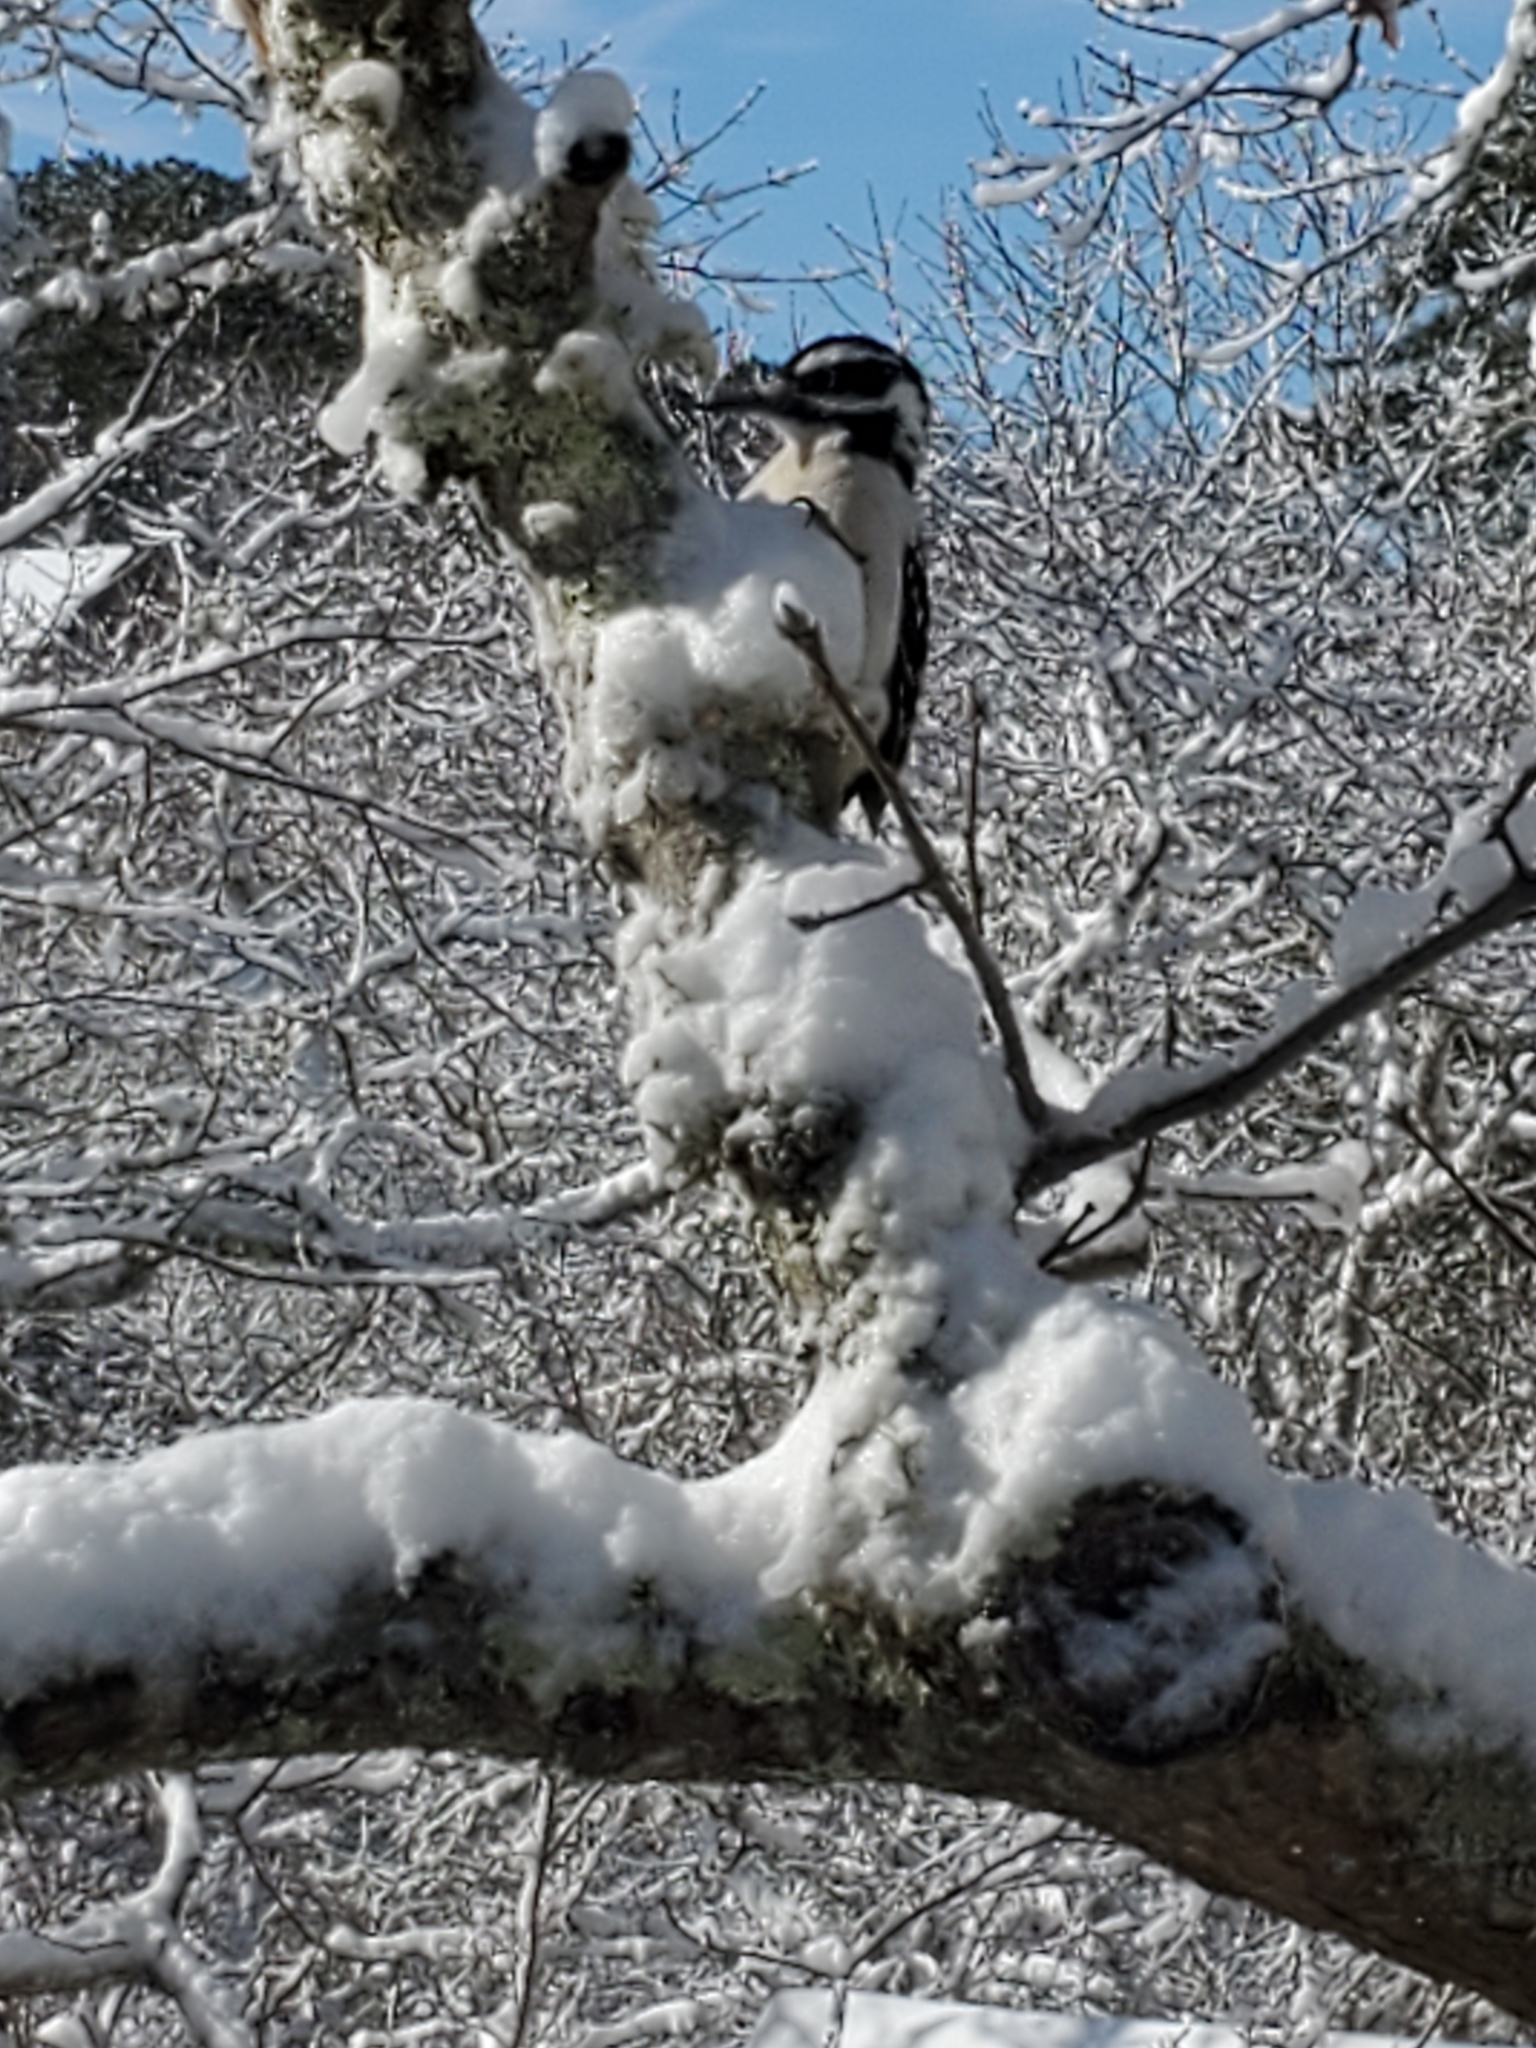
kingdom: Animalia
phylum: Chordata
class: Aves
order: Piciformes
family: Picidae
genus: Leuconotopicus
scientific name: Leuconotopicus villosus
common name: Hairy woodpecker
